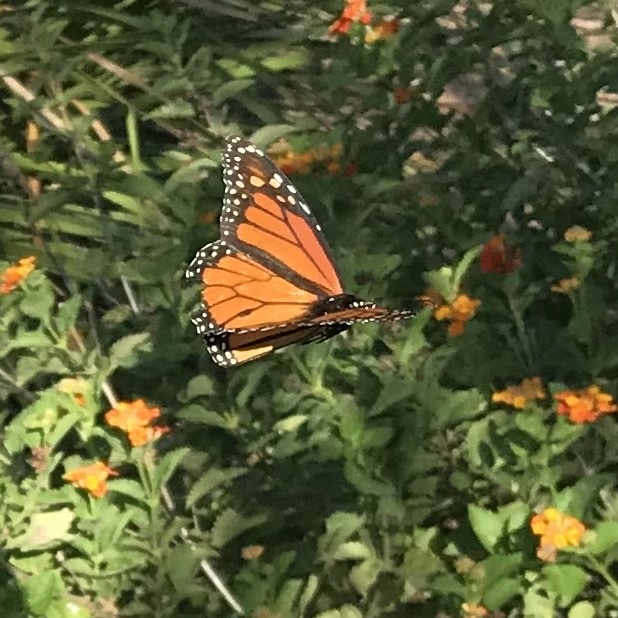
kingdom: Animalia
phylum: Arthropoda
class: Insecta
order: Lepidoptera
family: Nymphalidae
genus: Danaus
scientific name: Danaus plexippus
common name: Monarch
